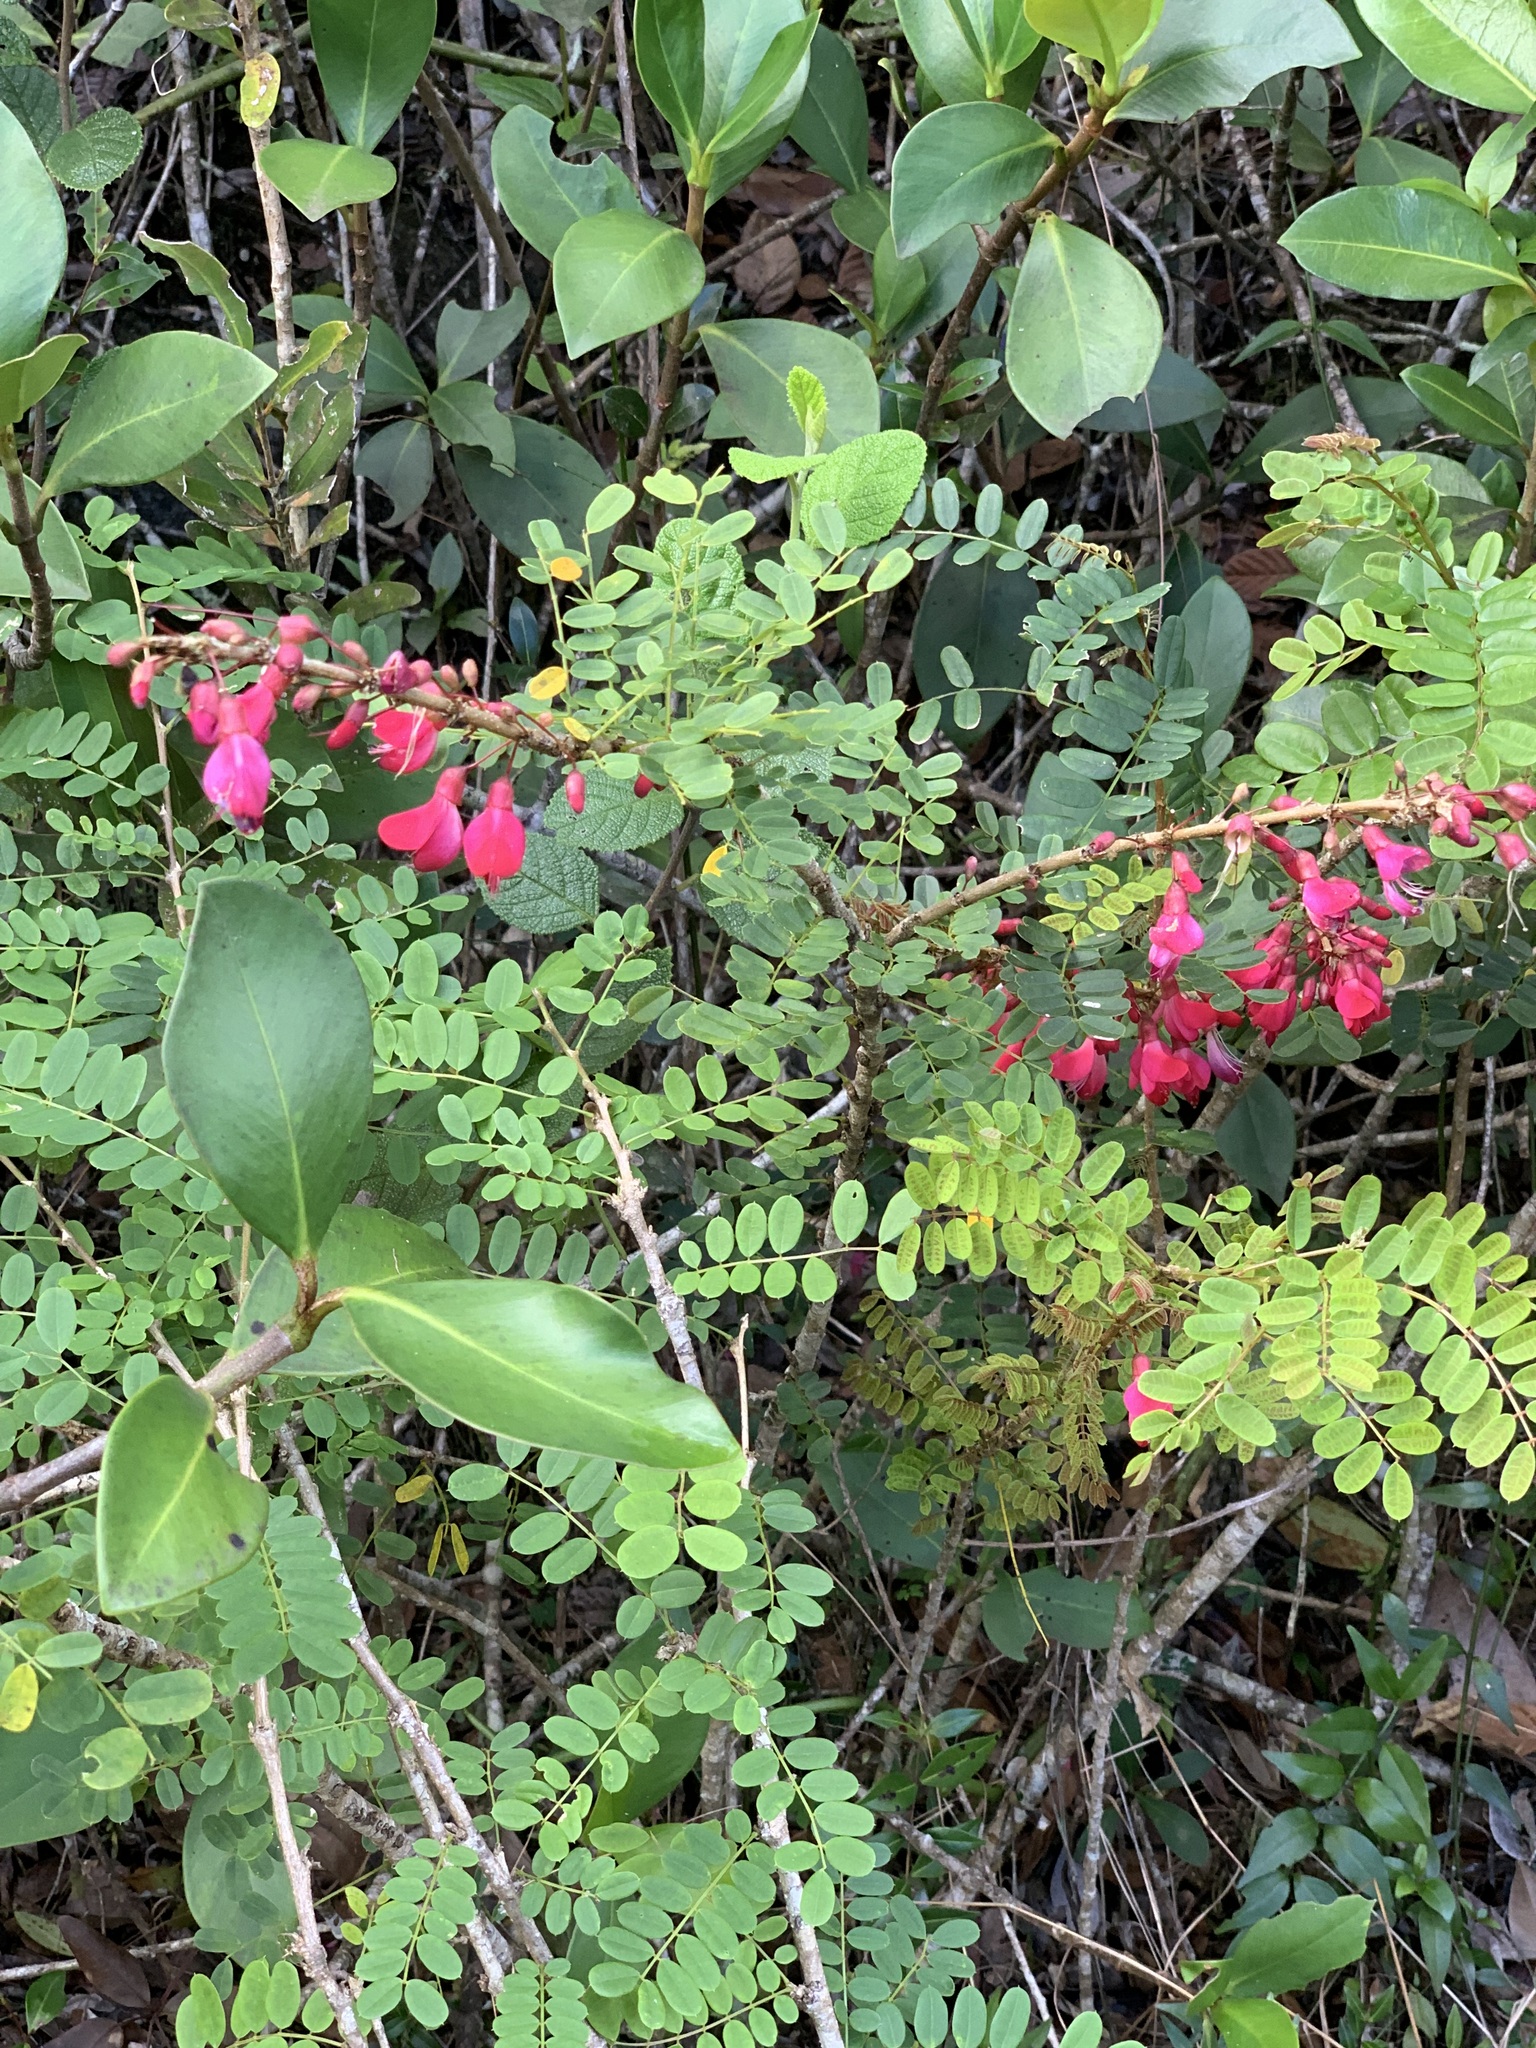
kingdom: Plantae
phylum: Tracheophyta
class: Magnoliopsida
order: Fabales
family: Fabaceae
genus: Poitea
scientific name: Poitea punicea
